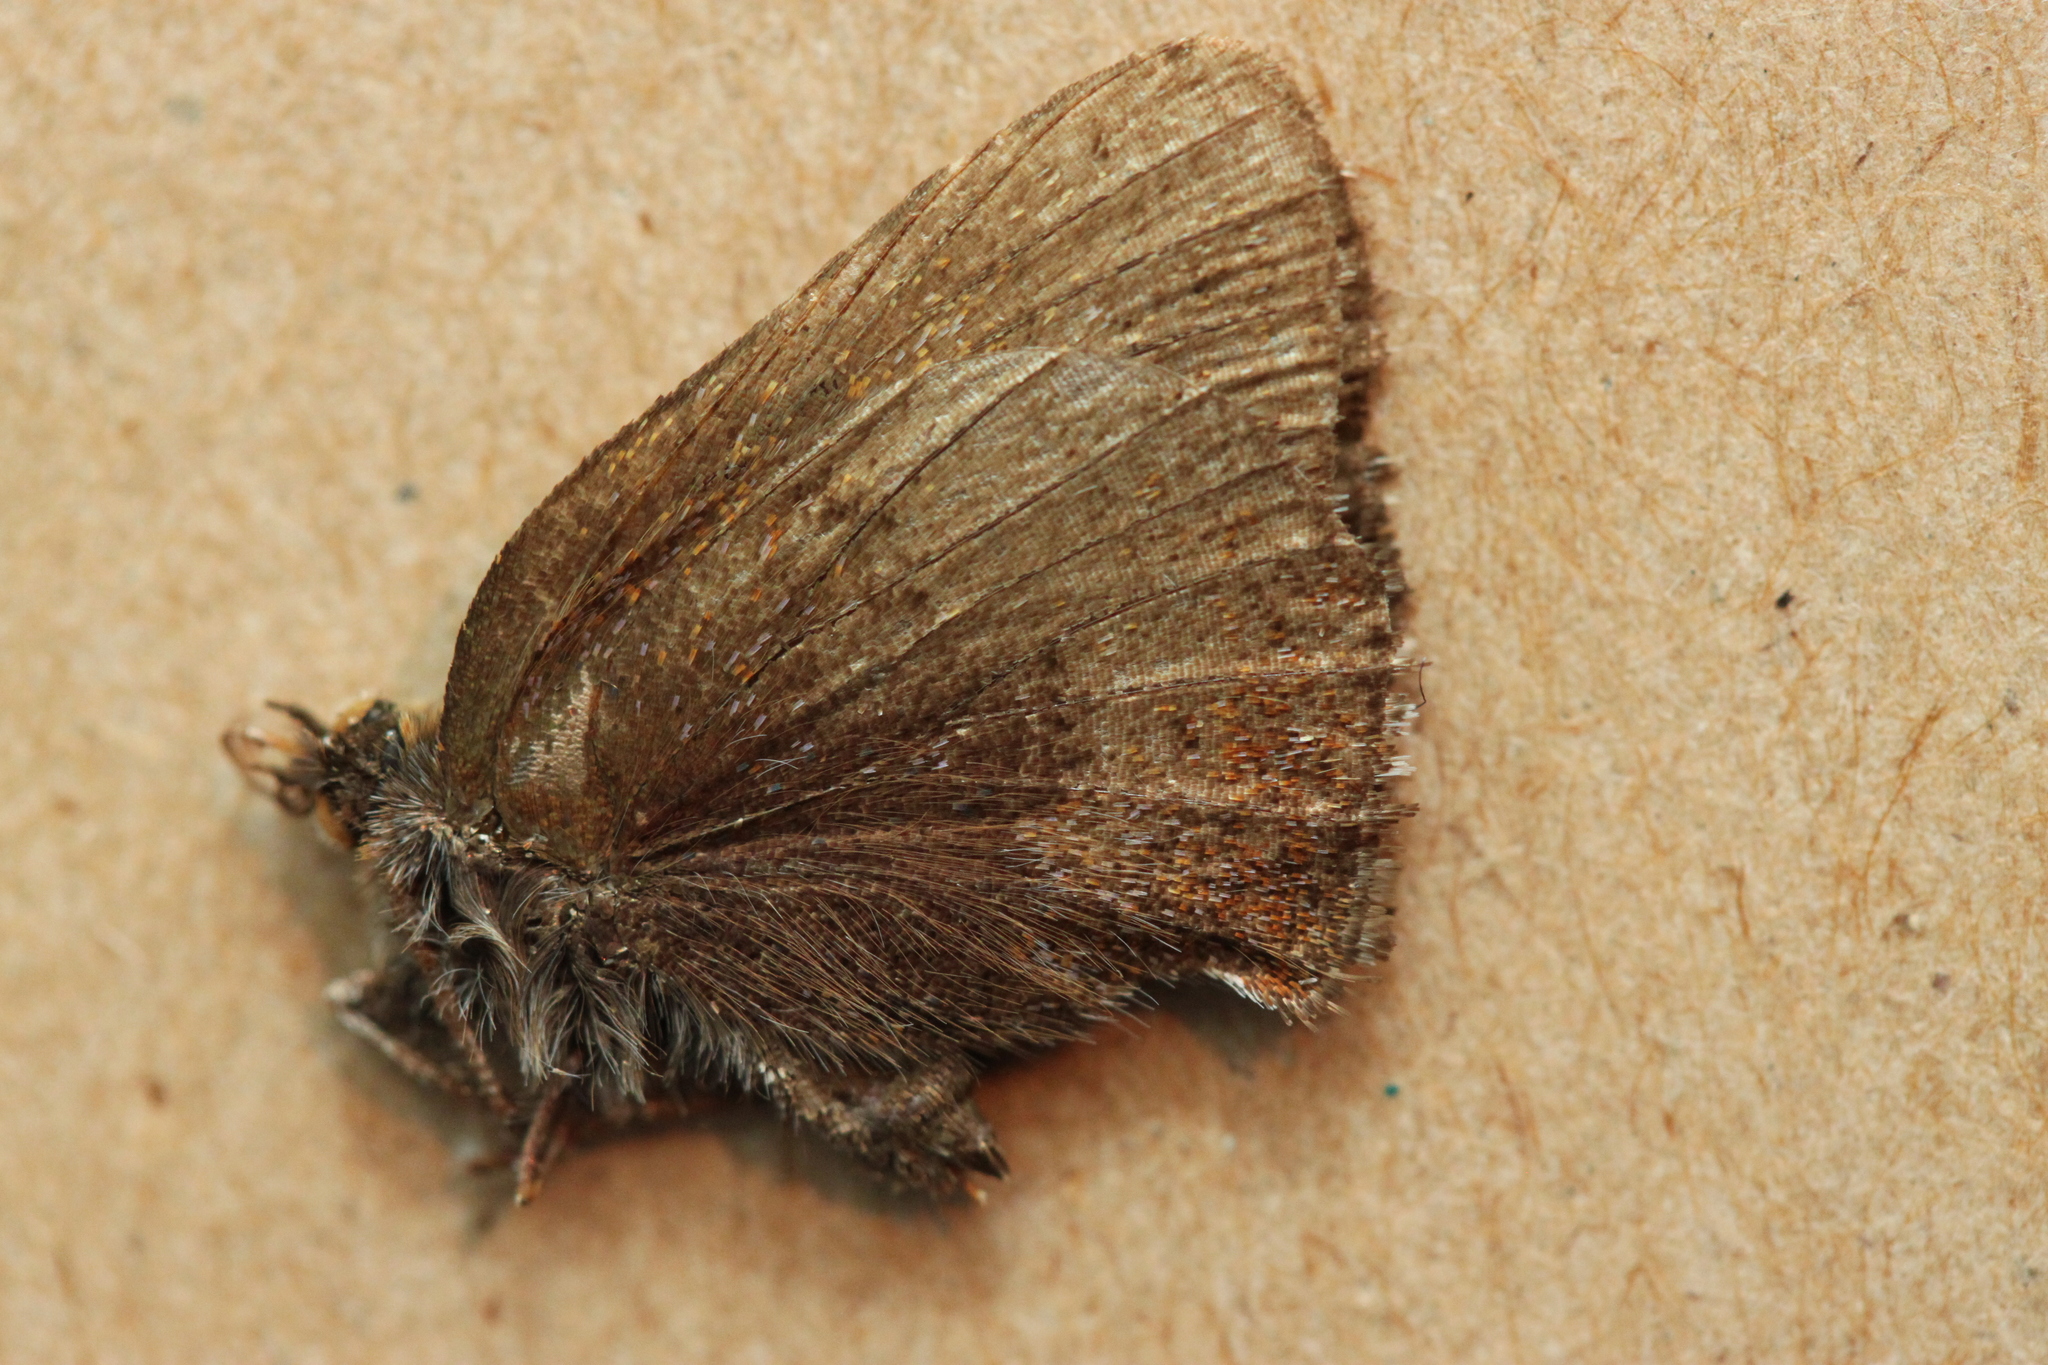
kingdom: Animalia
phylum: Arthropoda
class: Insecta
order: Lepidoptera
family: Lycaenidae
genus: Incisalia
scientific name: Incisalia irioides
